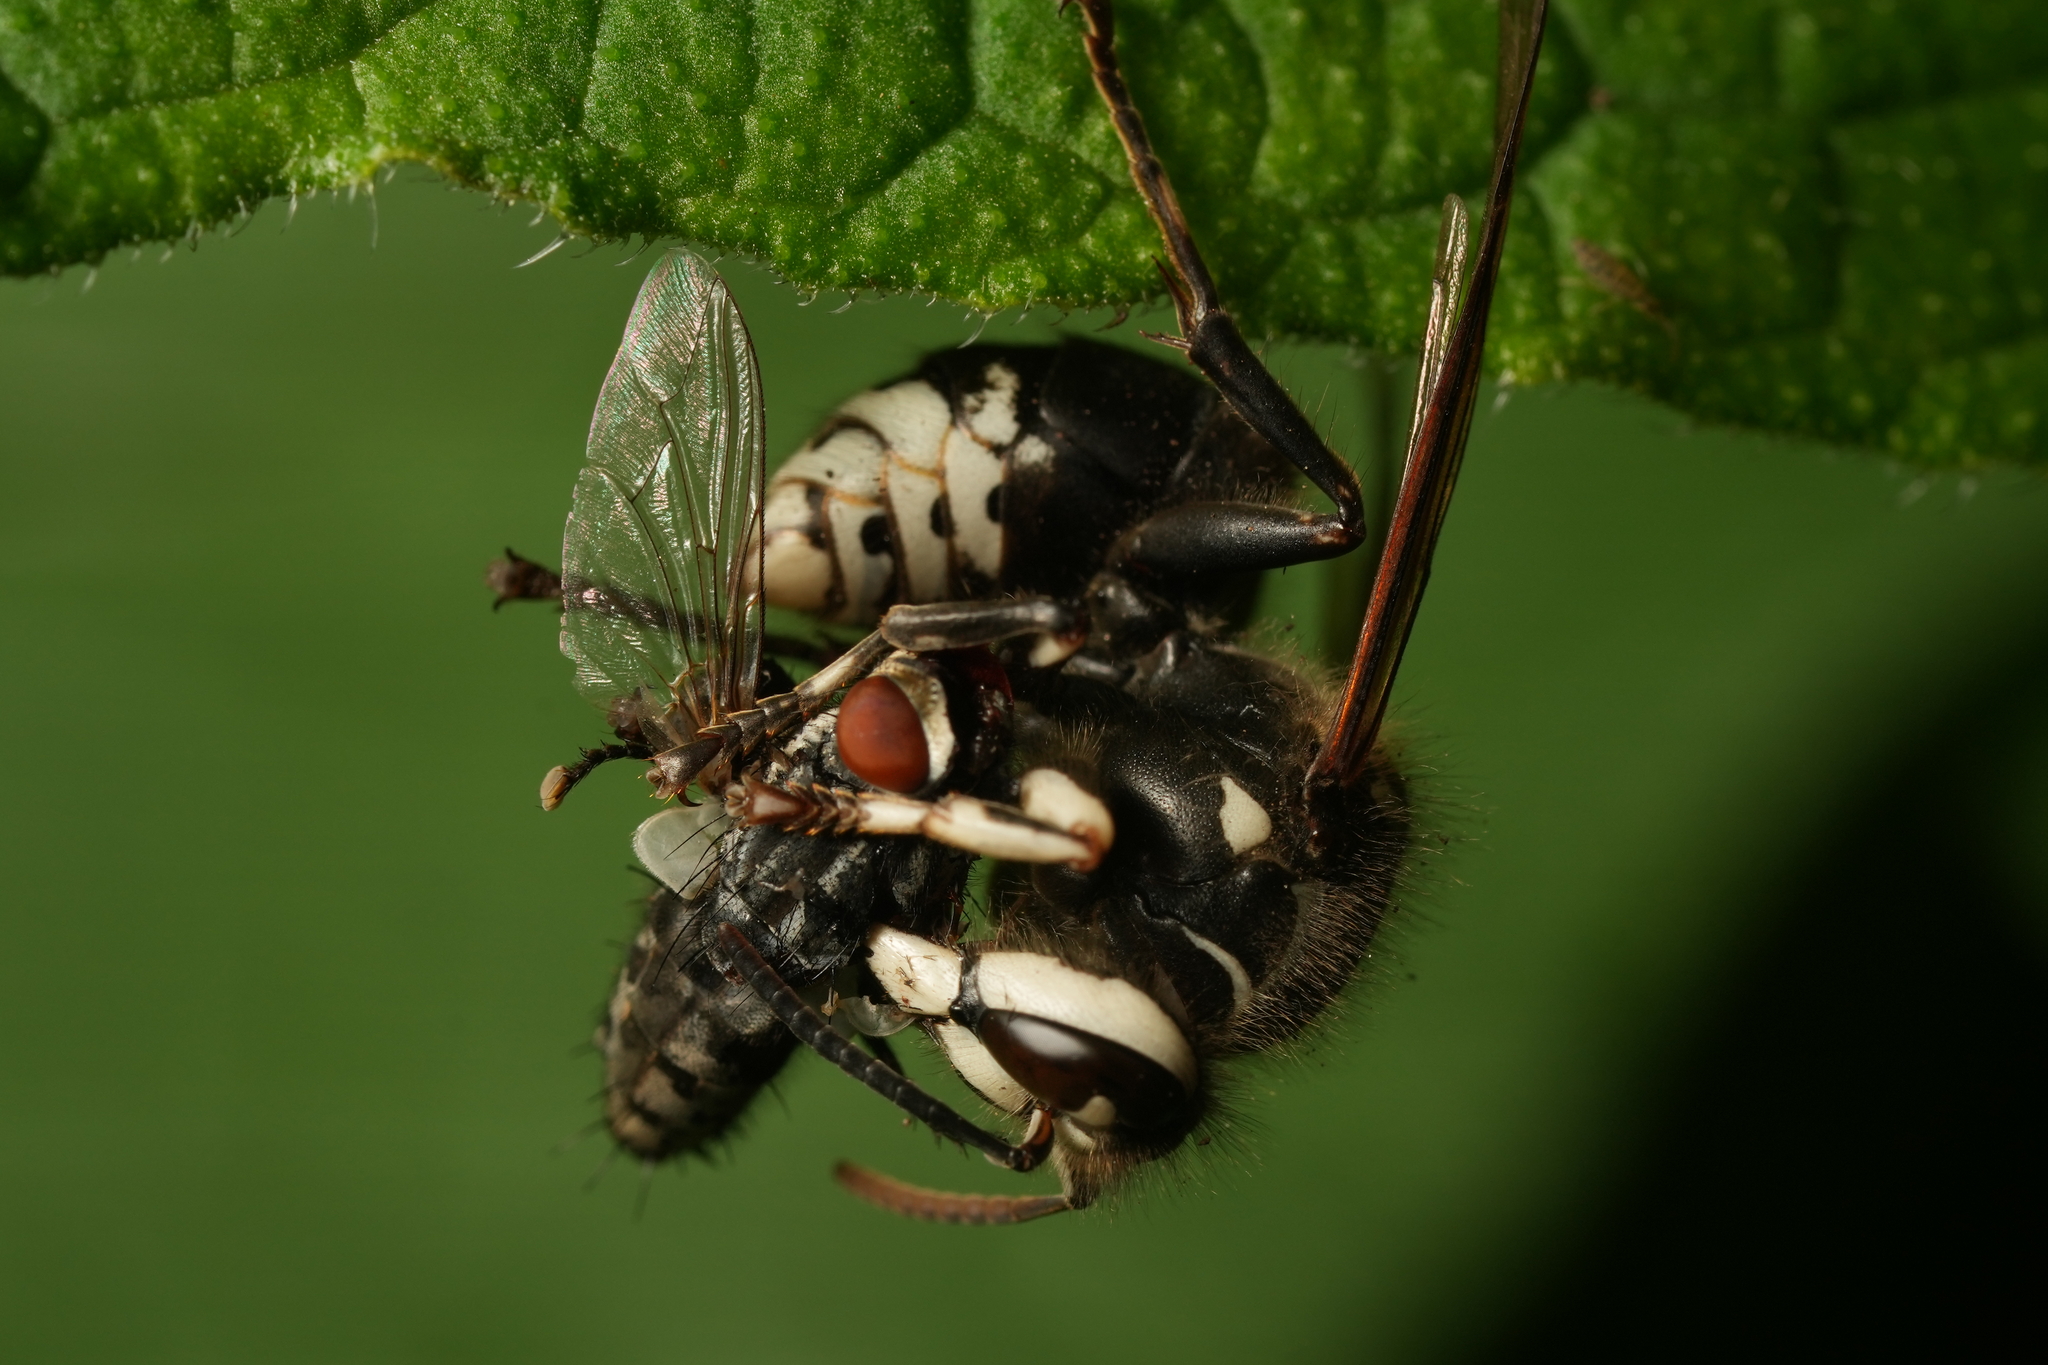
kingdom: Animalia
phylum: Arthropoda
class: Insecta
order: Hymenoptera
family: Vespidae
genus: Dolichovespula
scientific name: Dolichovespula maculata
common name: Bald-faced hornet
